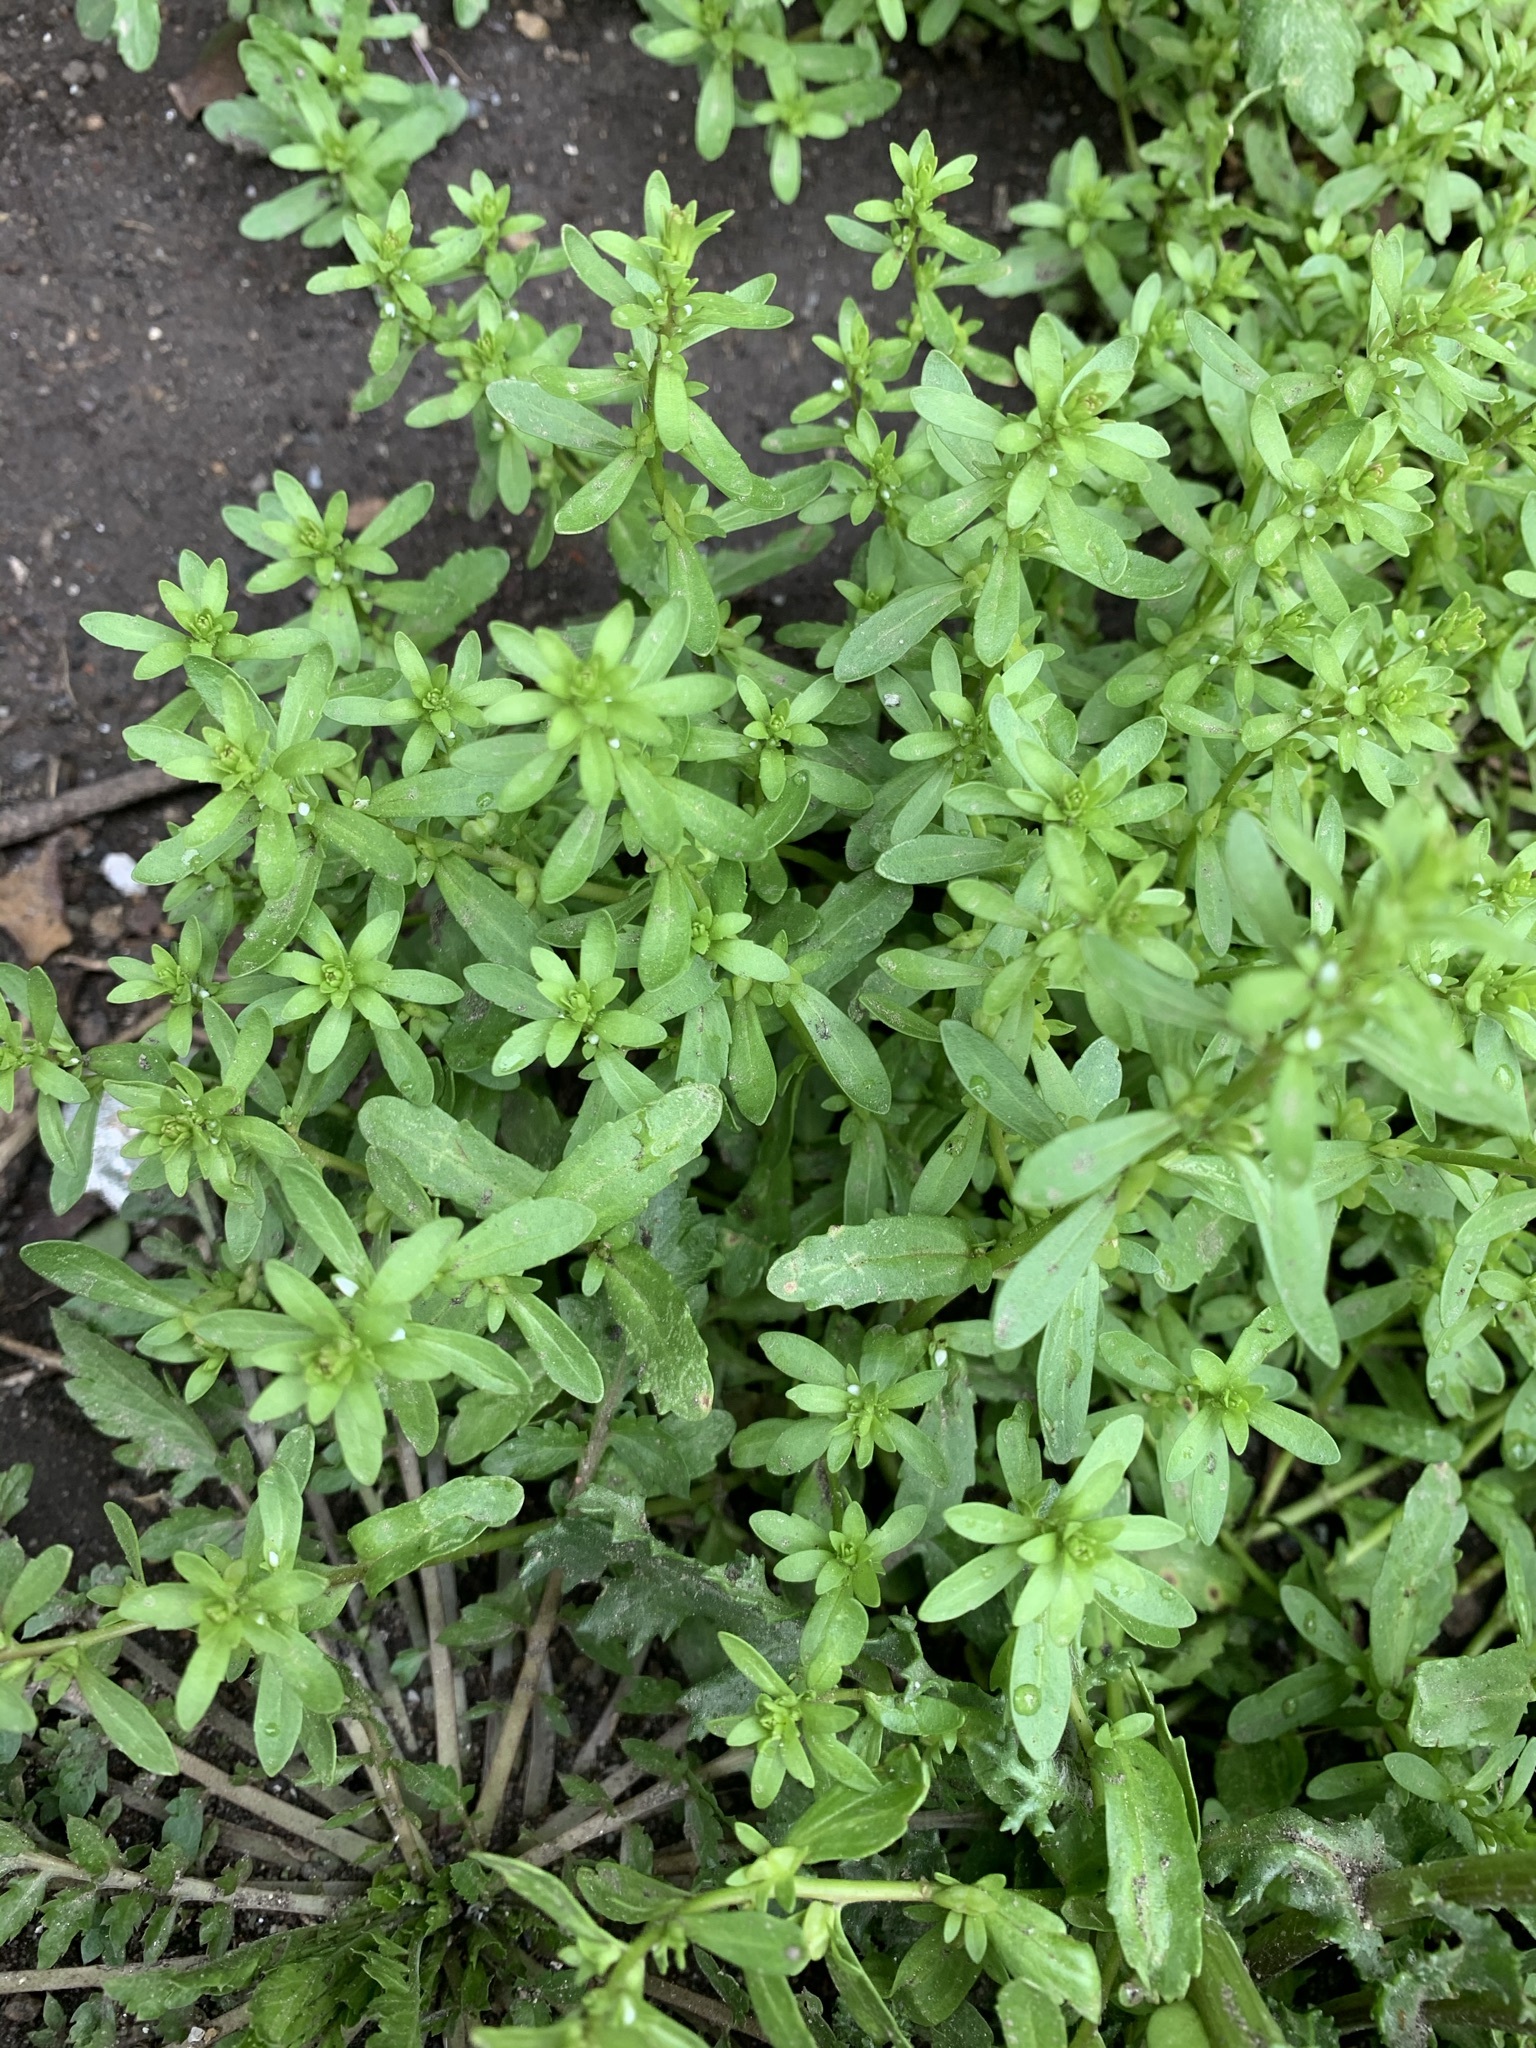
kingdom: Plantae
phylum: Tracheophyta
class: Magnoliopsida
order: Lamiales
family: Plantaginaceae
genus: Veronica
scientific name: Veronica peregrina
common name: Neckweed
